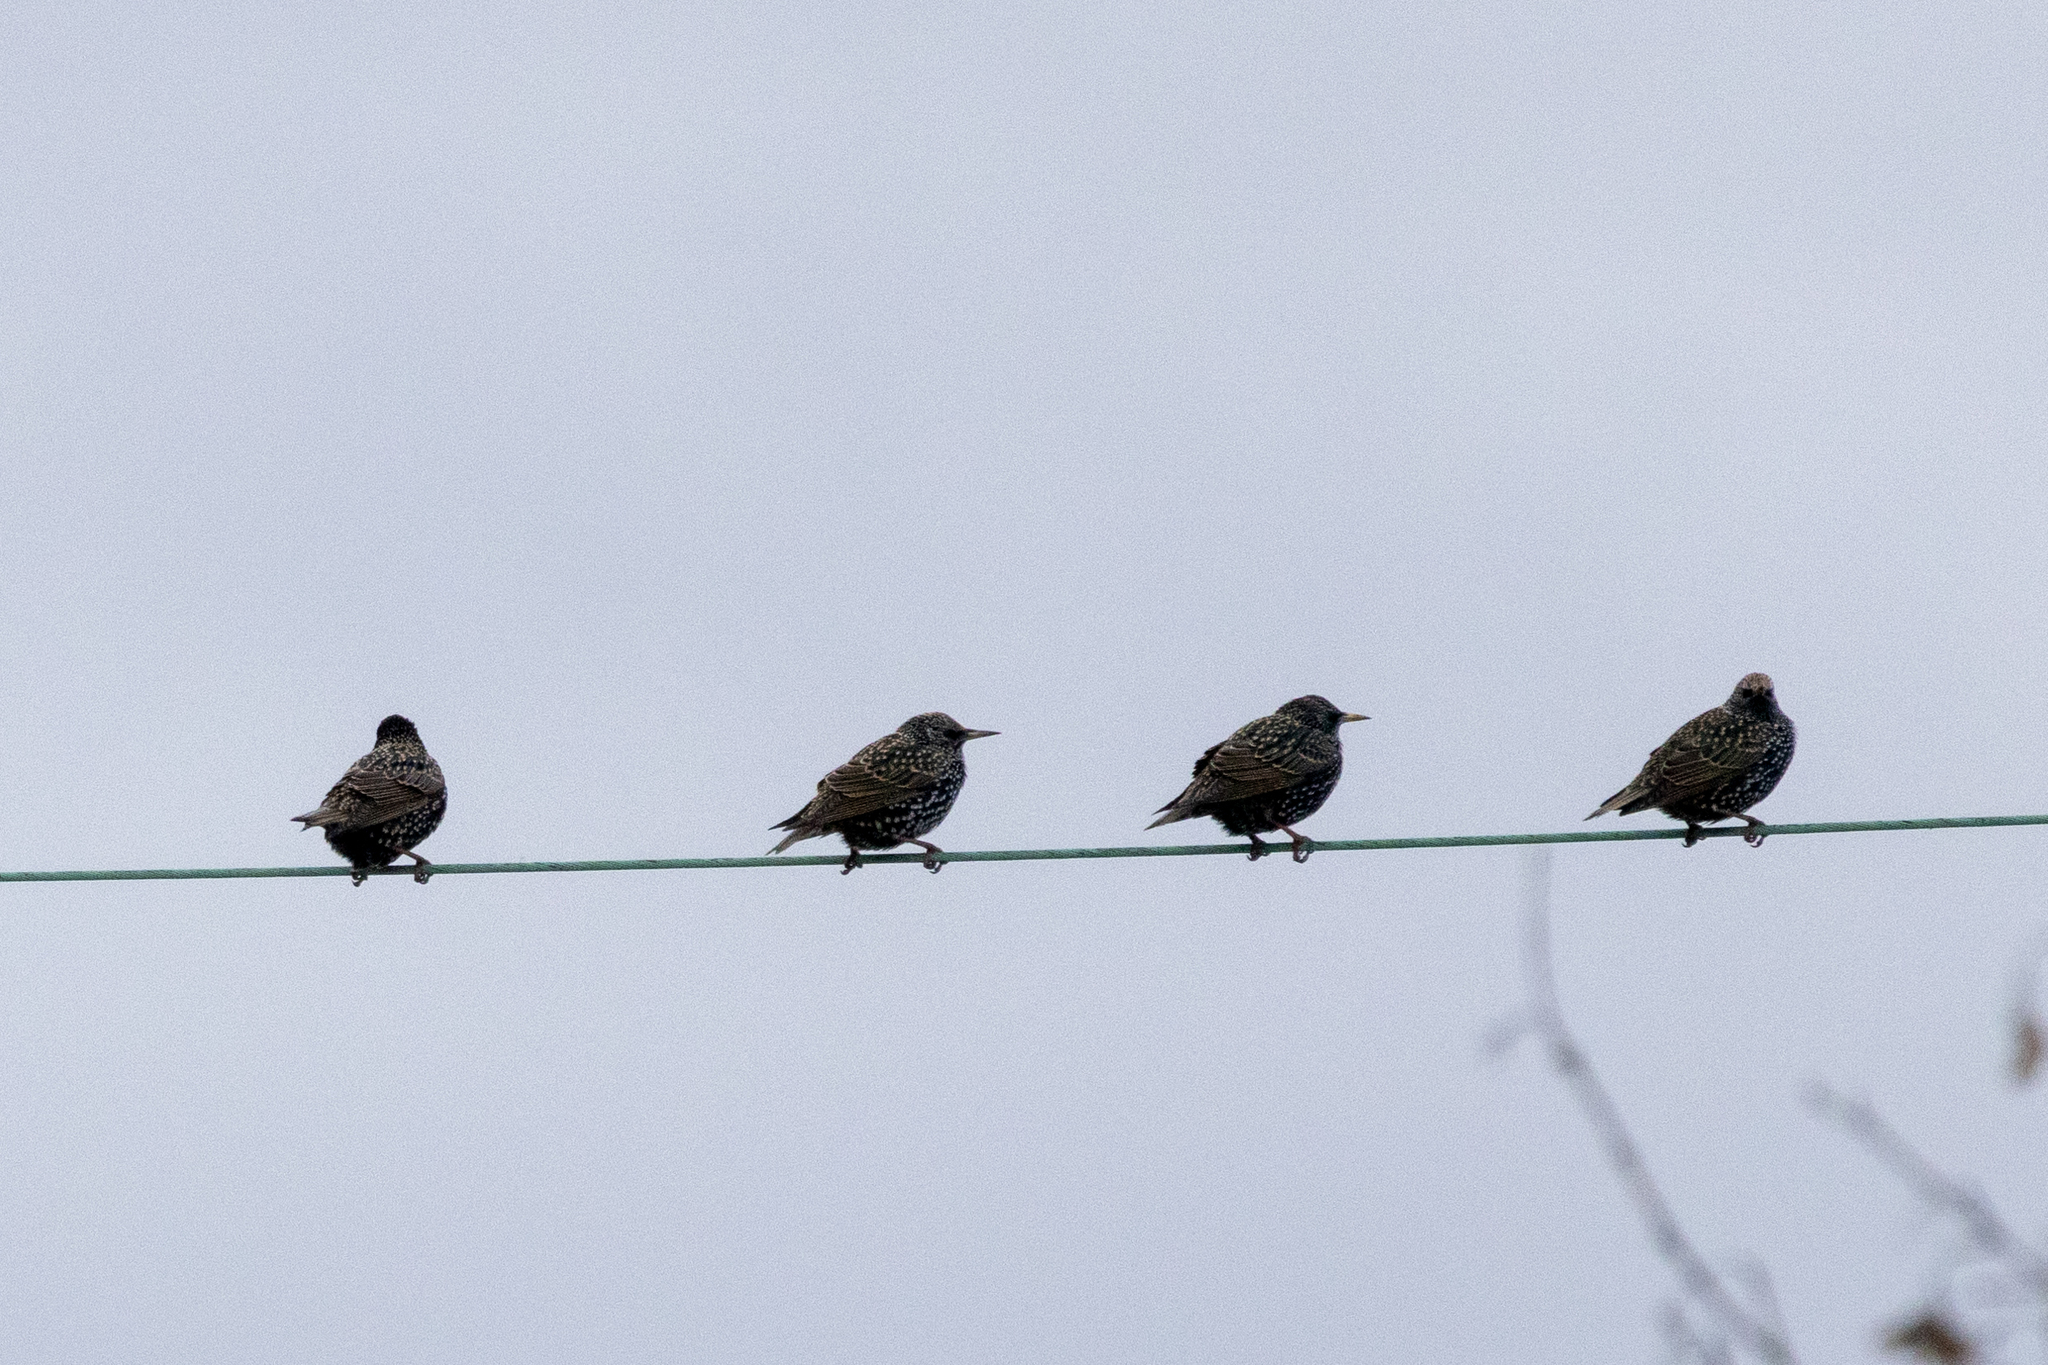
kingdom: Animalia
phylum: Chordata
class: Aves
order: Passeriformes
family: Sturnidae
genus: Sturnus
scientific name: Sturnus vulgaris
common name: Common starling
